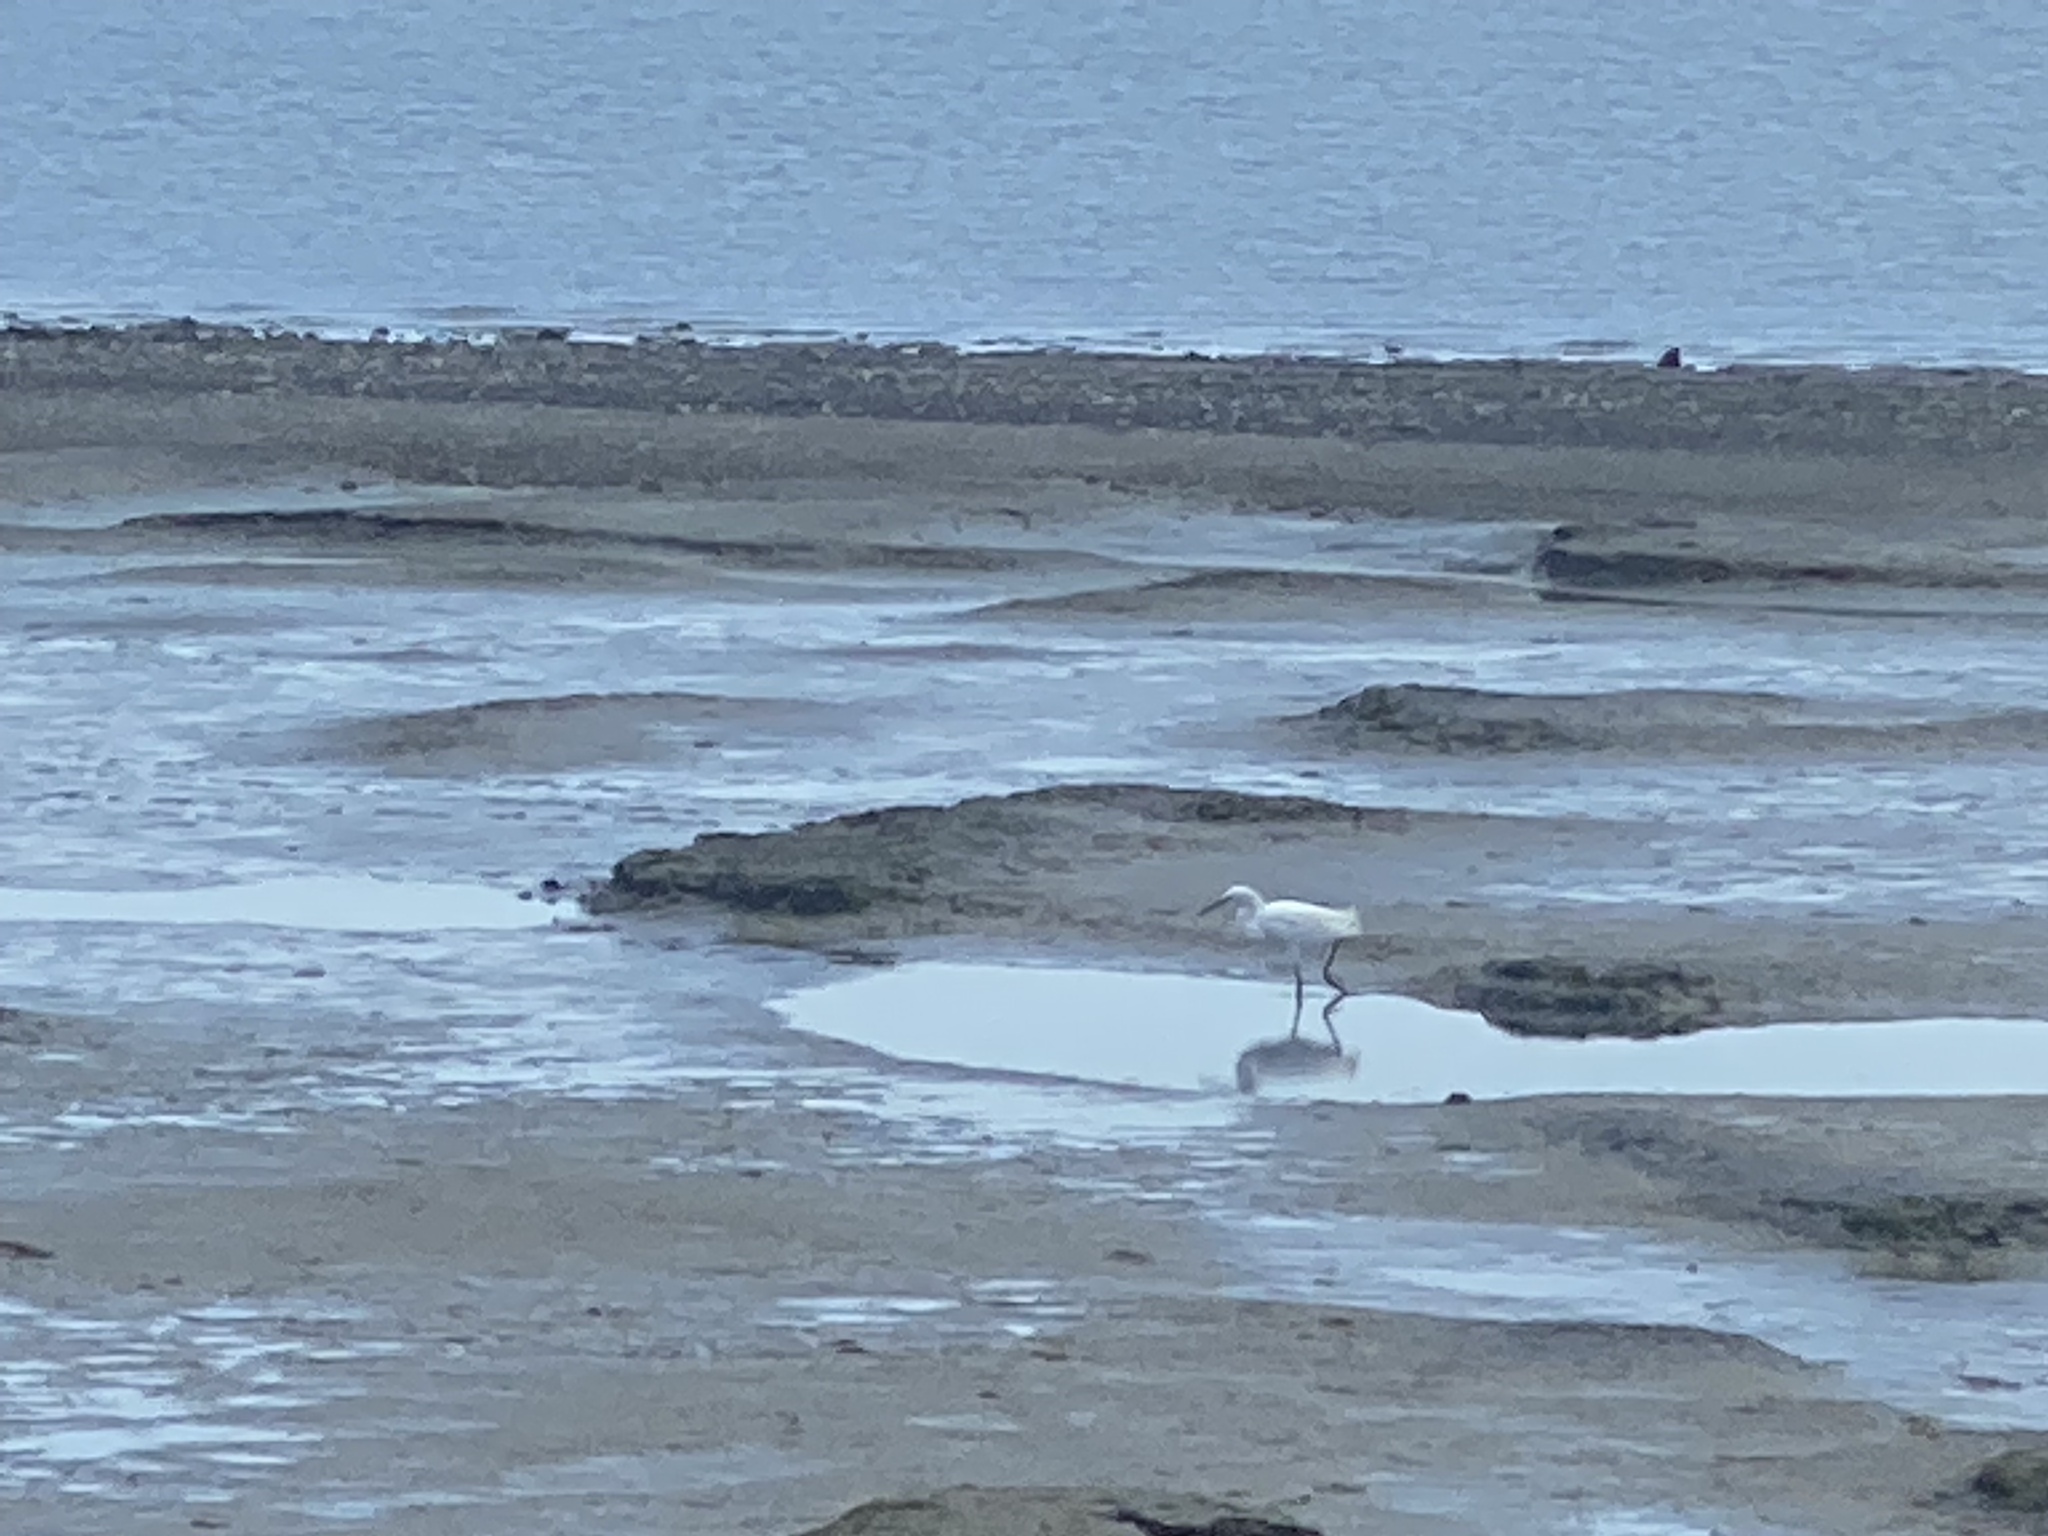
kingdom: Animalia
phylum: Chordata
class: Aves
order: Pelecaniformes
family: Ardeidae
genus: Egretta
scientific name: Egretta thula
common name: Snowy egret
